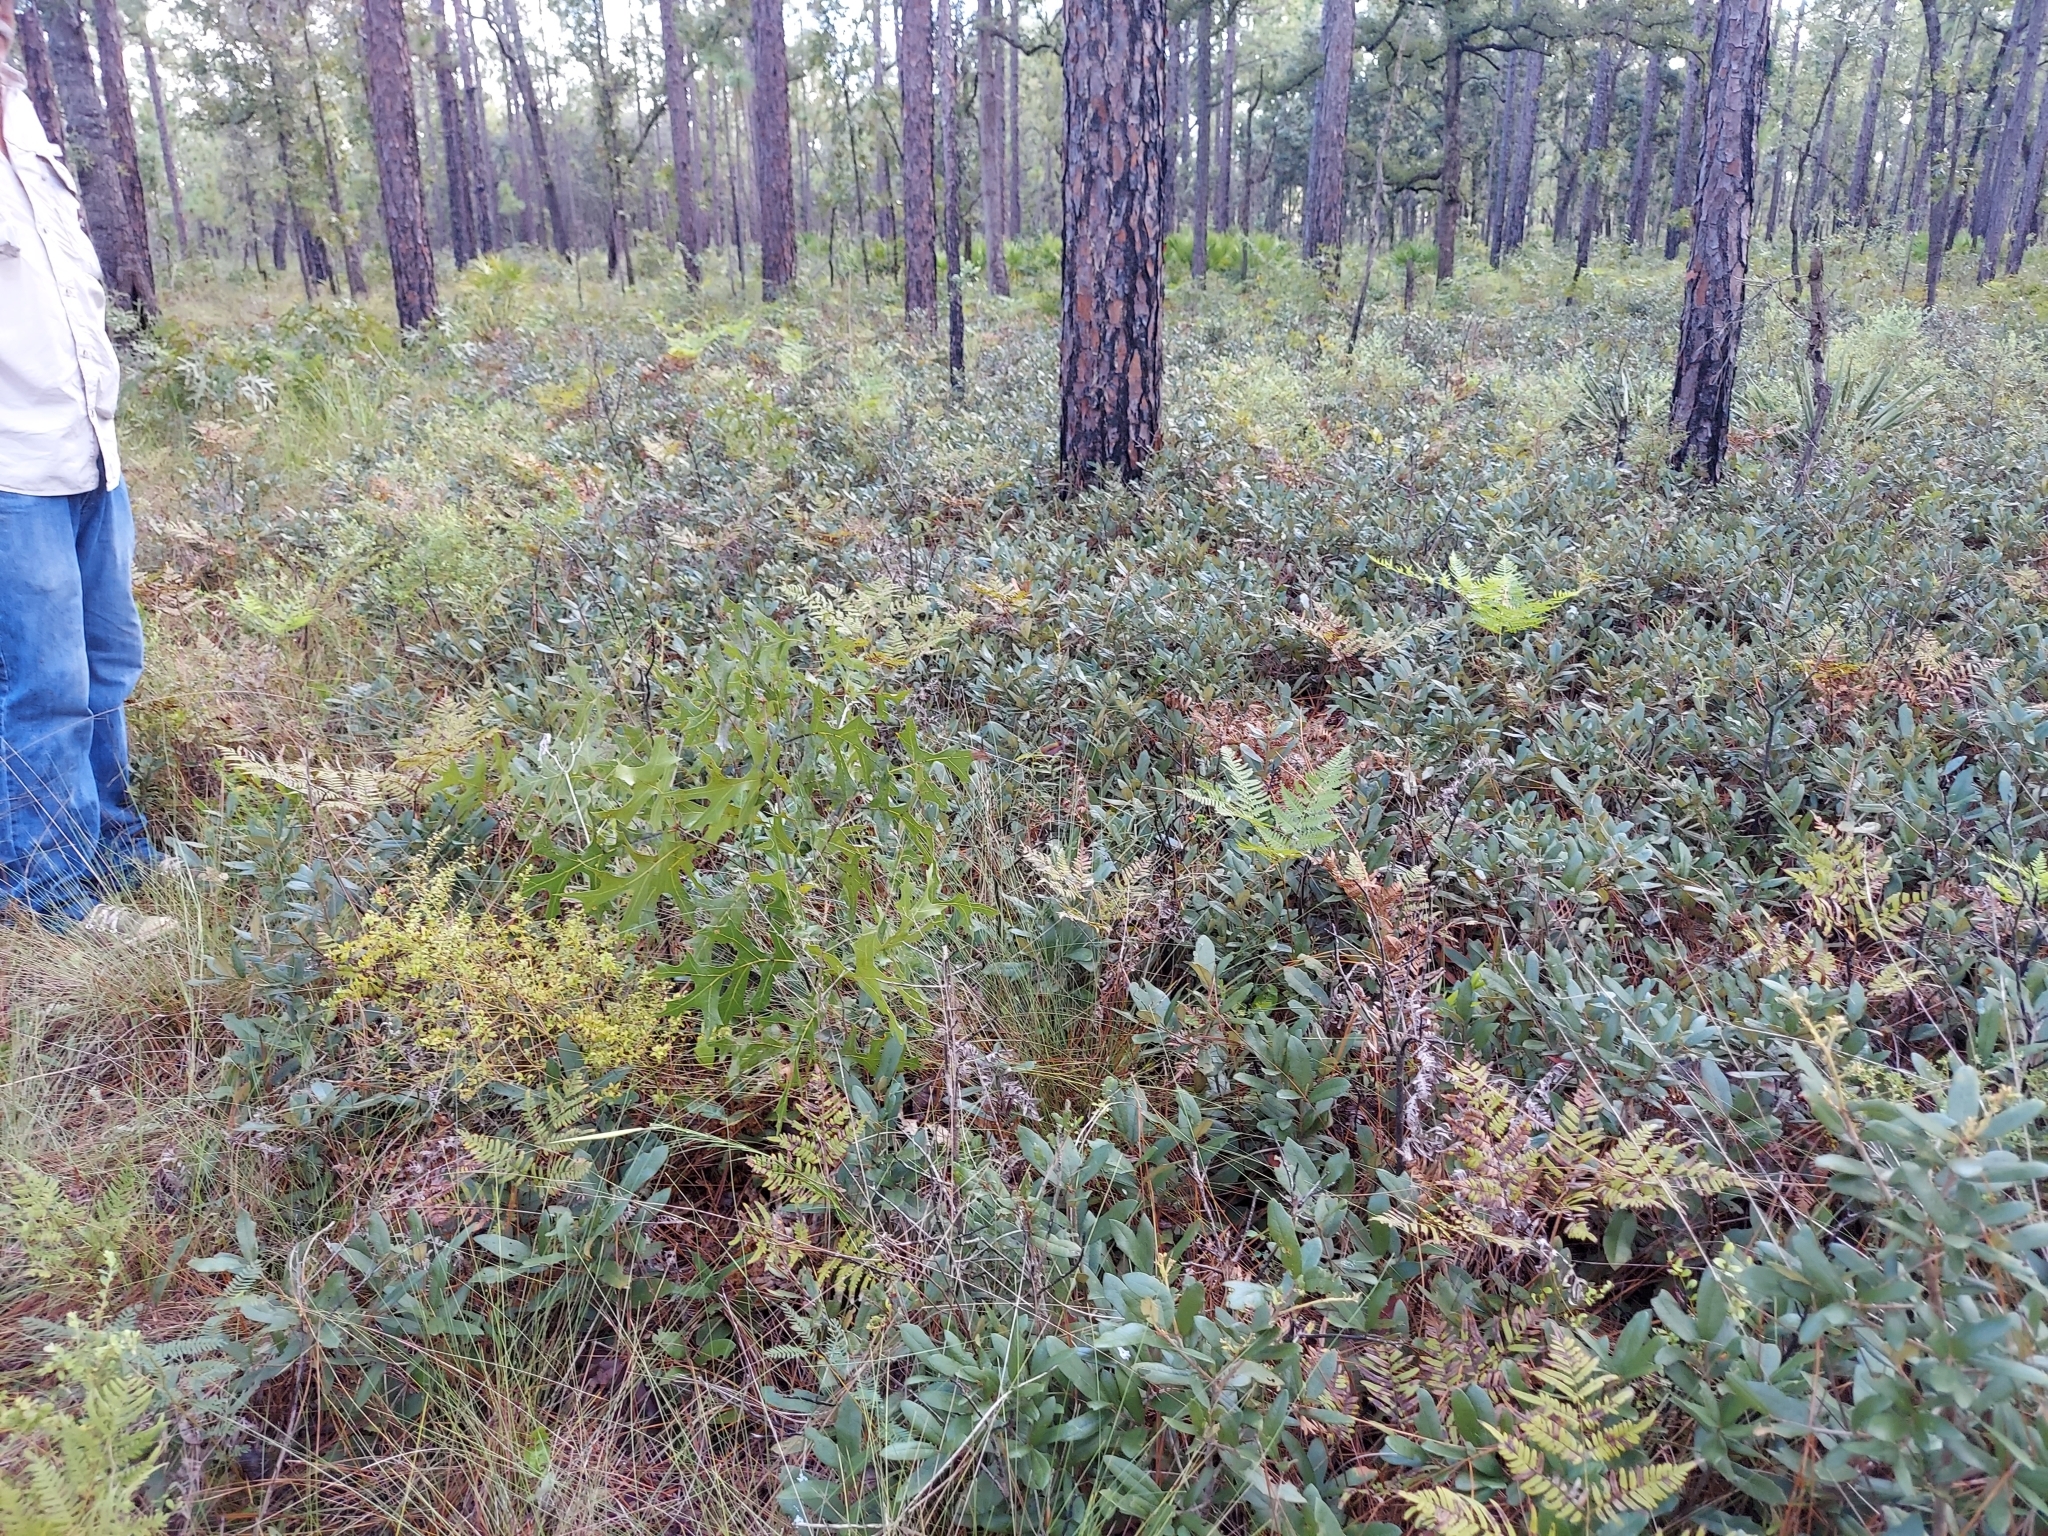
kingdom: Plantae
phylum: Tracheophyta
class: Magnoliopsida
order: Fagales
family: Fagaceae
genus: Quercus
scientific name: Quercus minima
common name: Dwarf live oak
